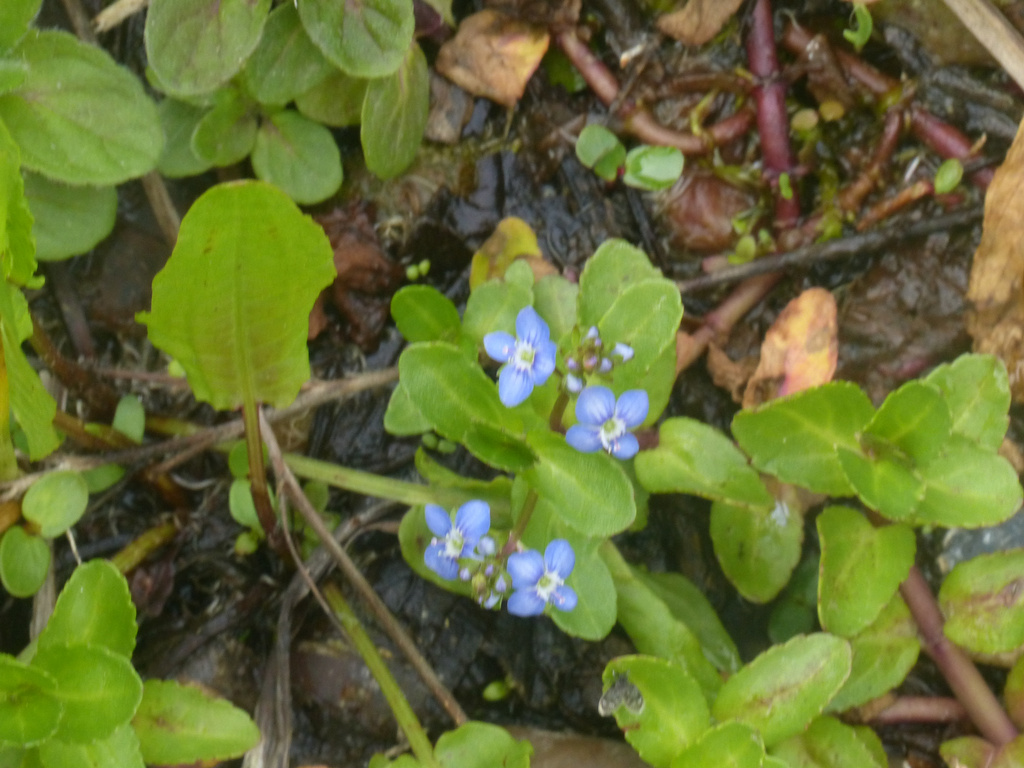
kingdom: Plantae
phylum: Tracheophyta
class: Magnoliopsida
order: Lamiales
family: Plantaginaceae
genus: Veronica
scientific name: Veronica beccabunga
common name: Brooklime
